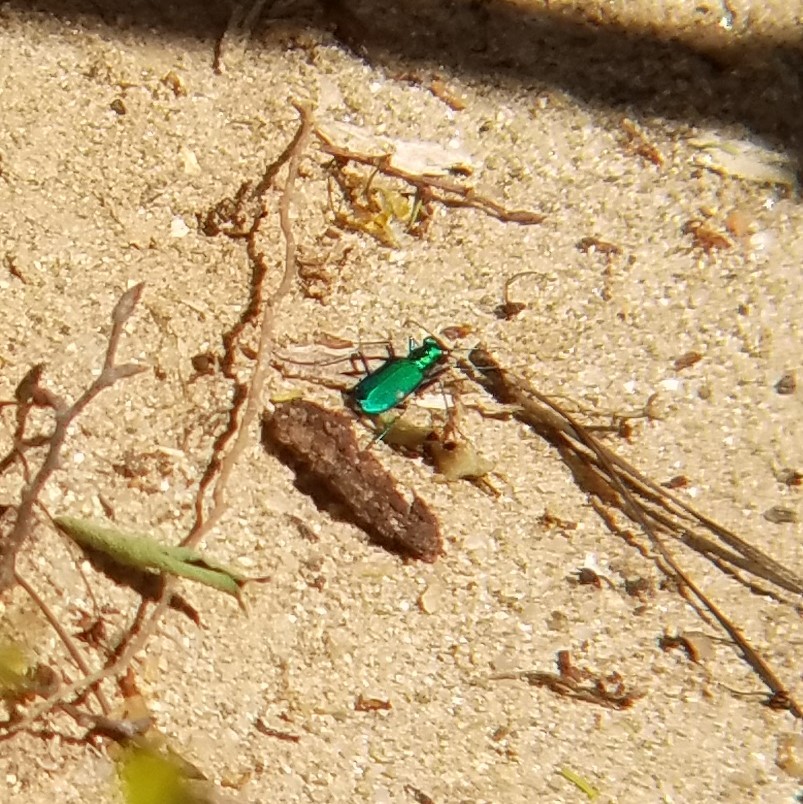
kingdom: Animalia
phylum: Arthropoda
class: Insecta
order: Coleoptera
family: Carabidae
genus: Cicindela
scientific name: Cicindela sexguttata
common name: Six-spotted tiger beetle
